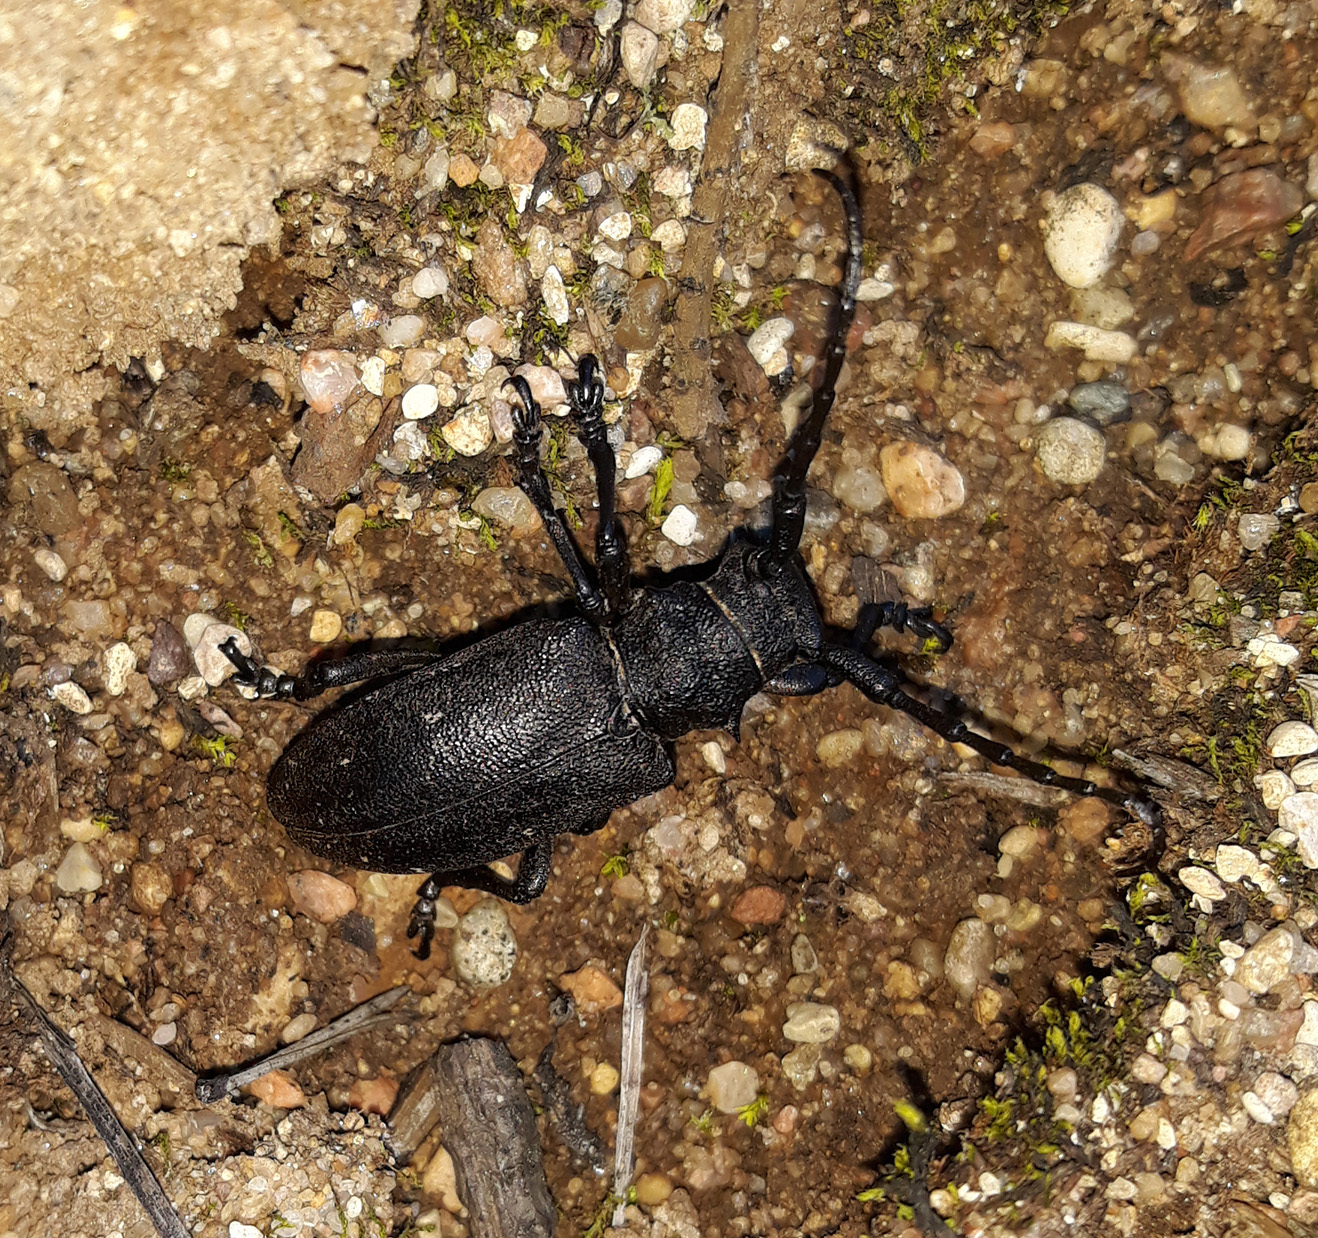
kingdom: Animalia
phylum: Arthropoda
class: Insecta
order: Coleoptera
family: Cerambycidae
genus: Lamia
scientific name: Lamia textor
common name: Weaver beetle
